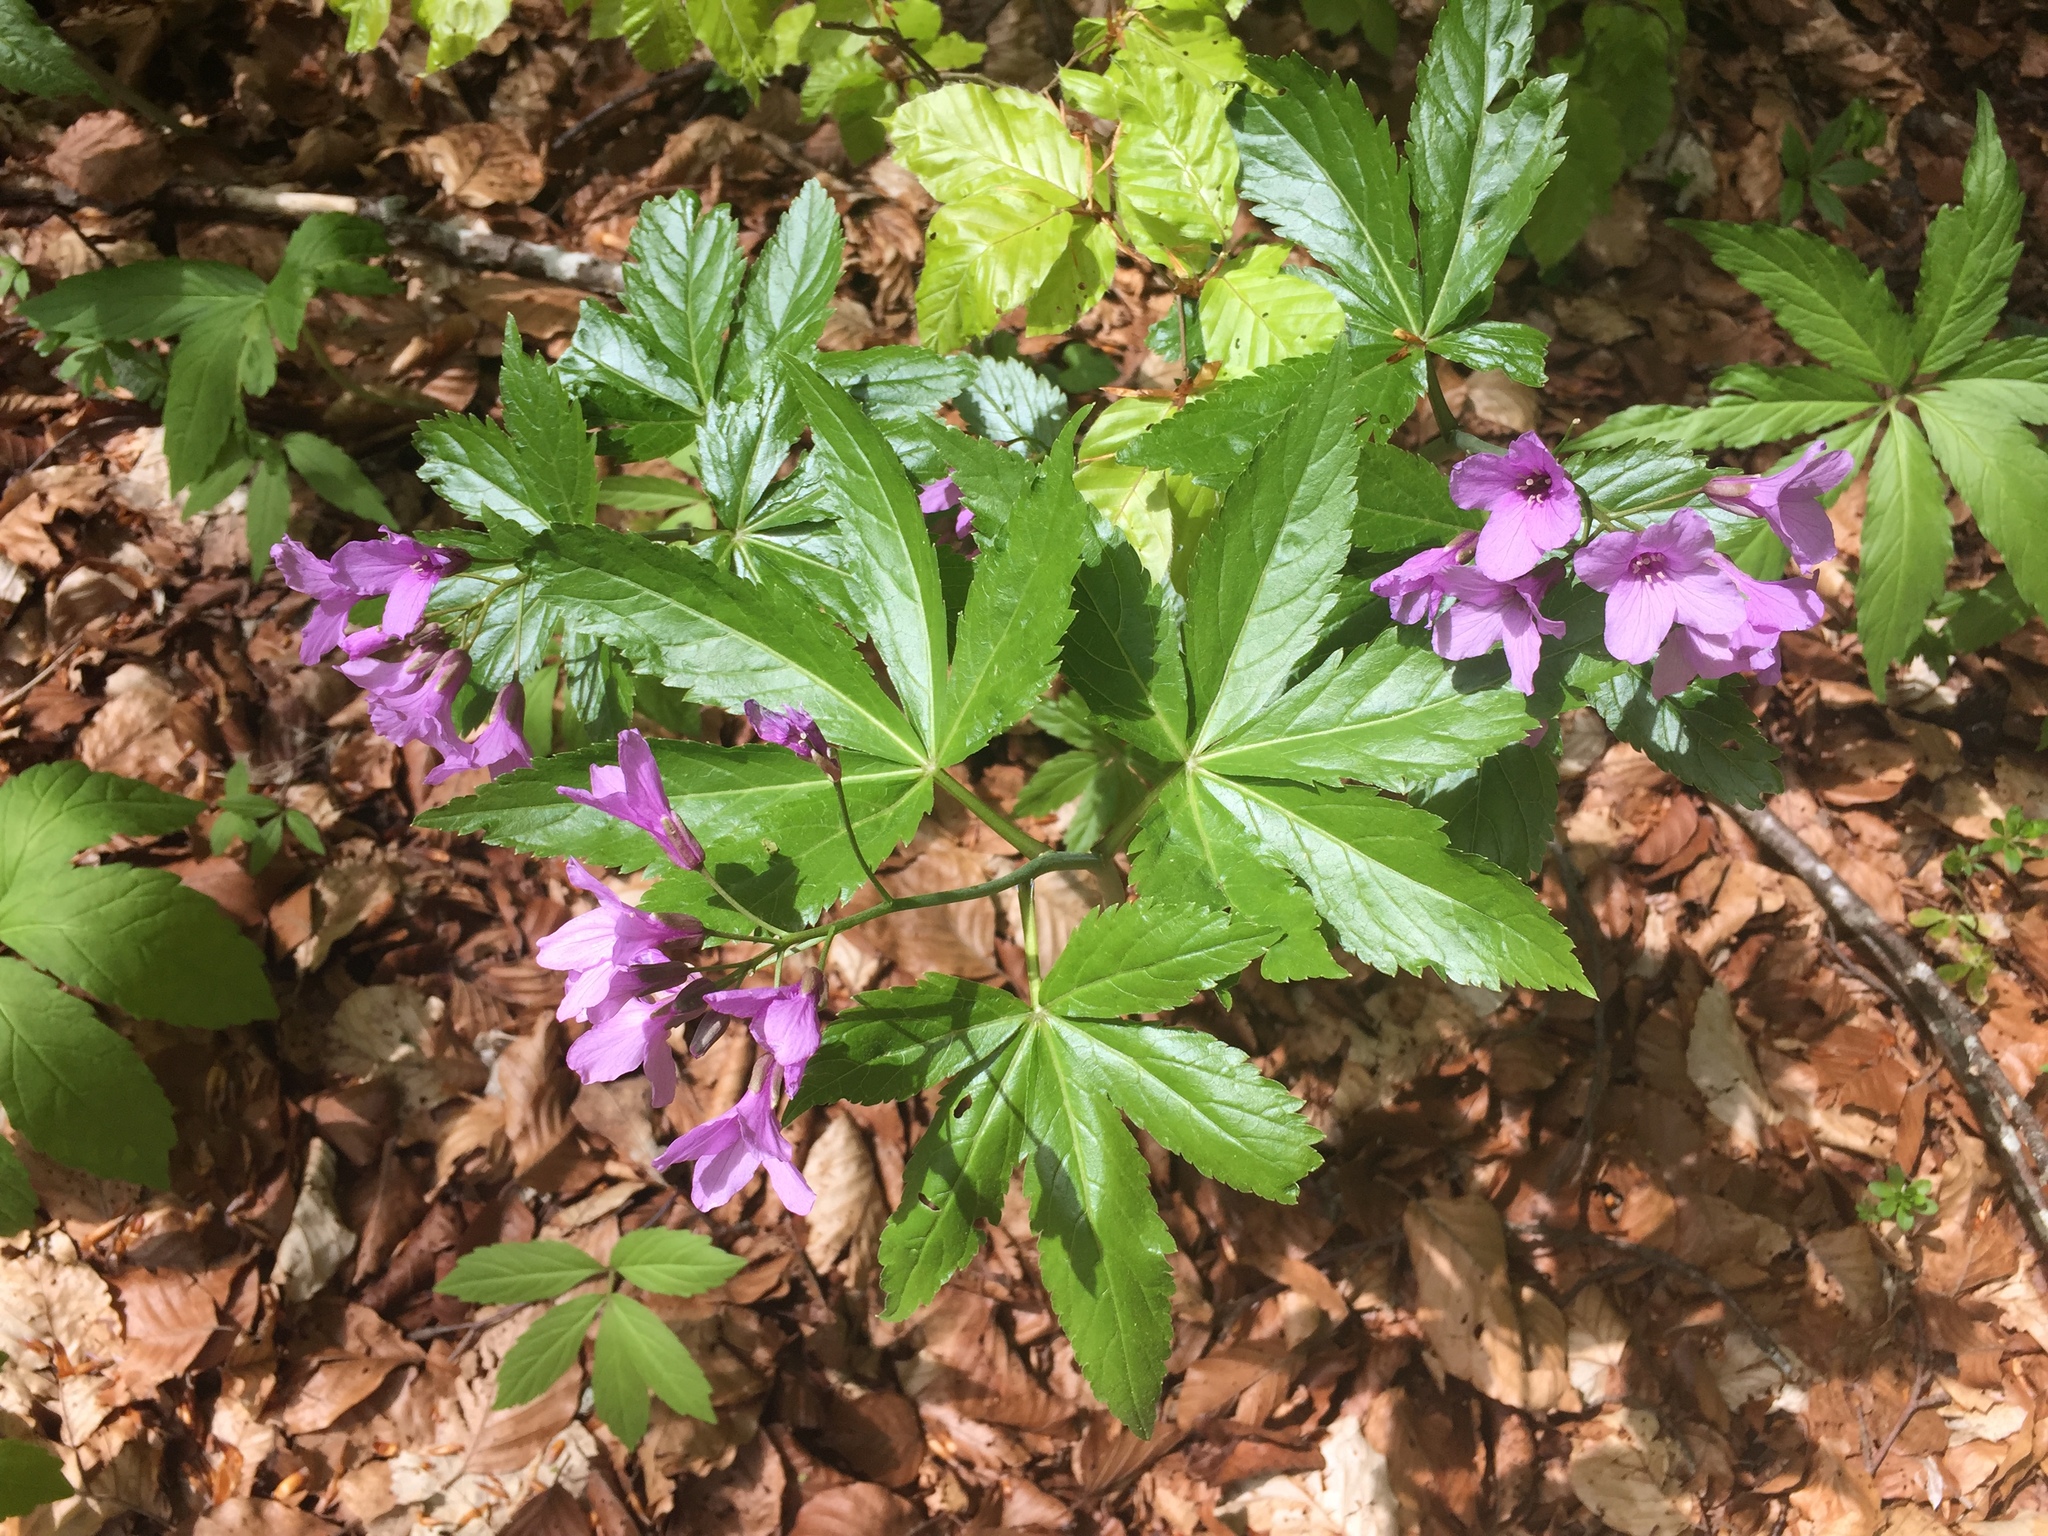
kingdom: Plantae
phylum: Tracheophyta
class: Magnoliopsida
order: Brassicales
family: Brassicaceae
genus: Cardamine
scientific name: Cardamine pentaphyllos
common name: Five-leaflet bitter-cress
